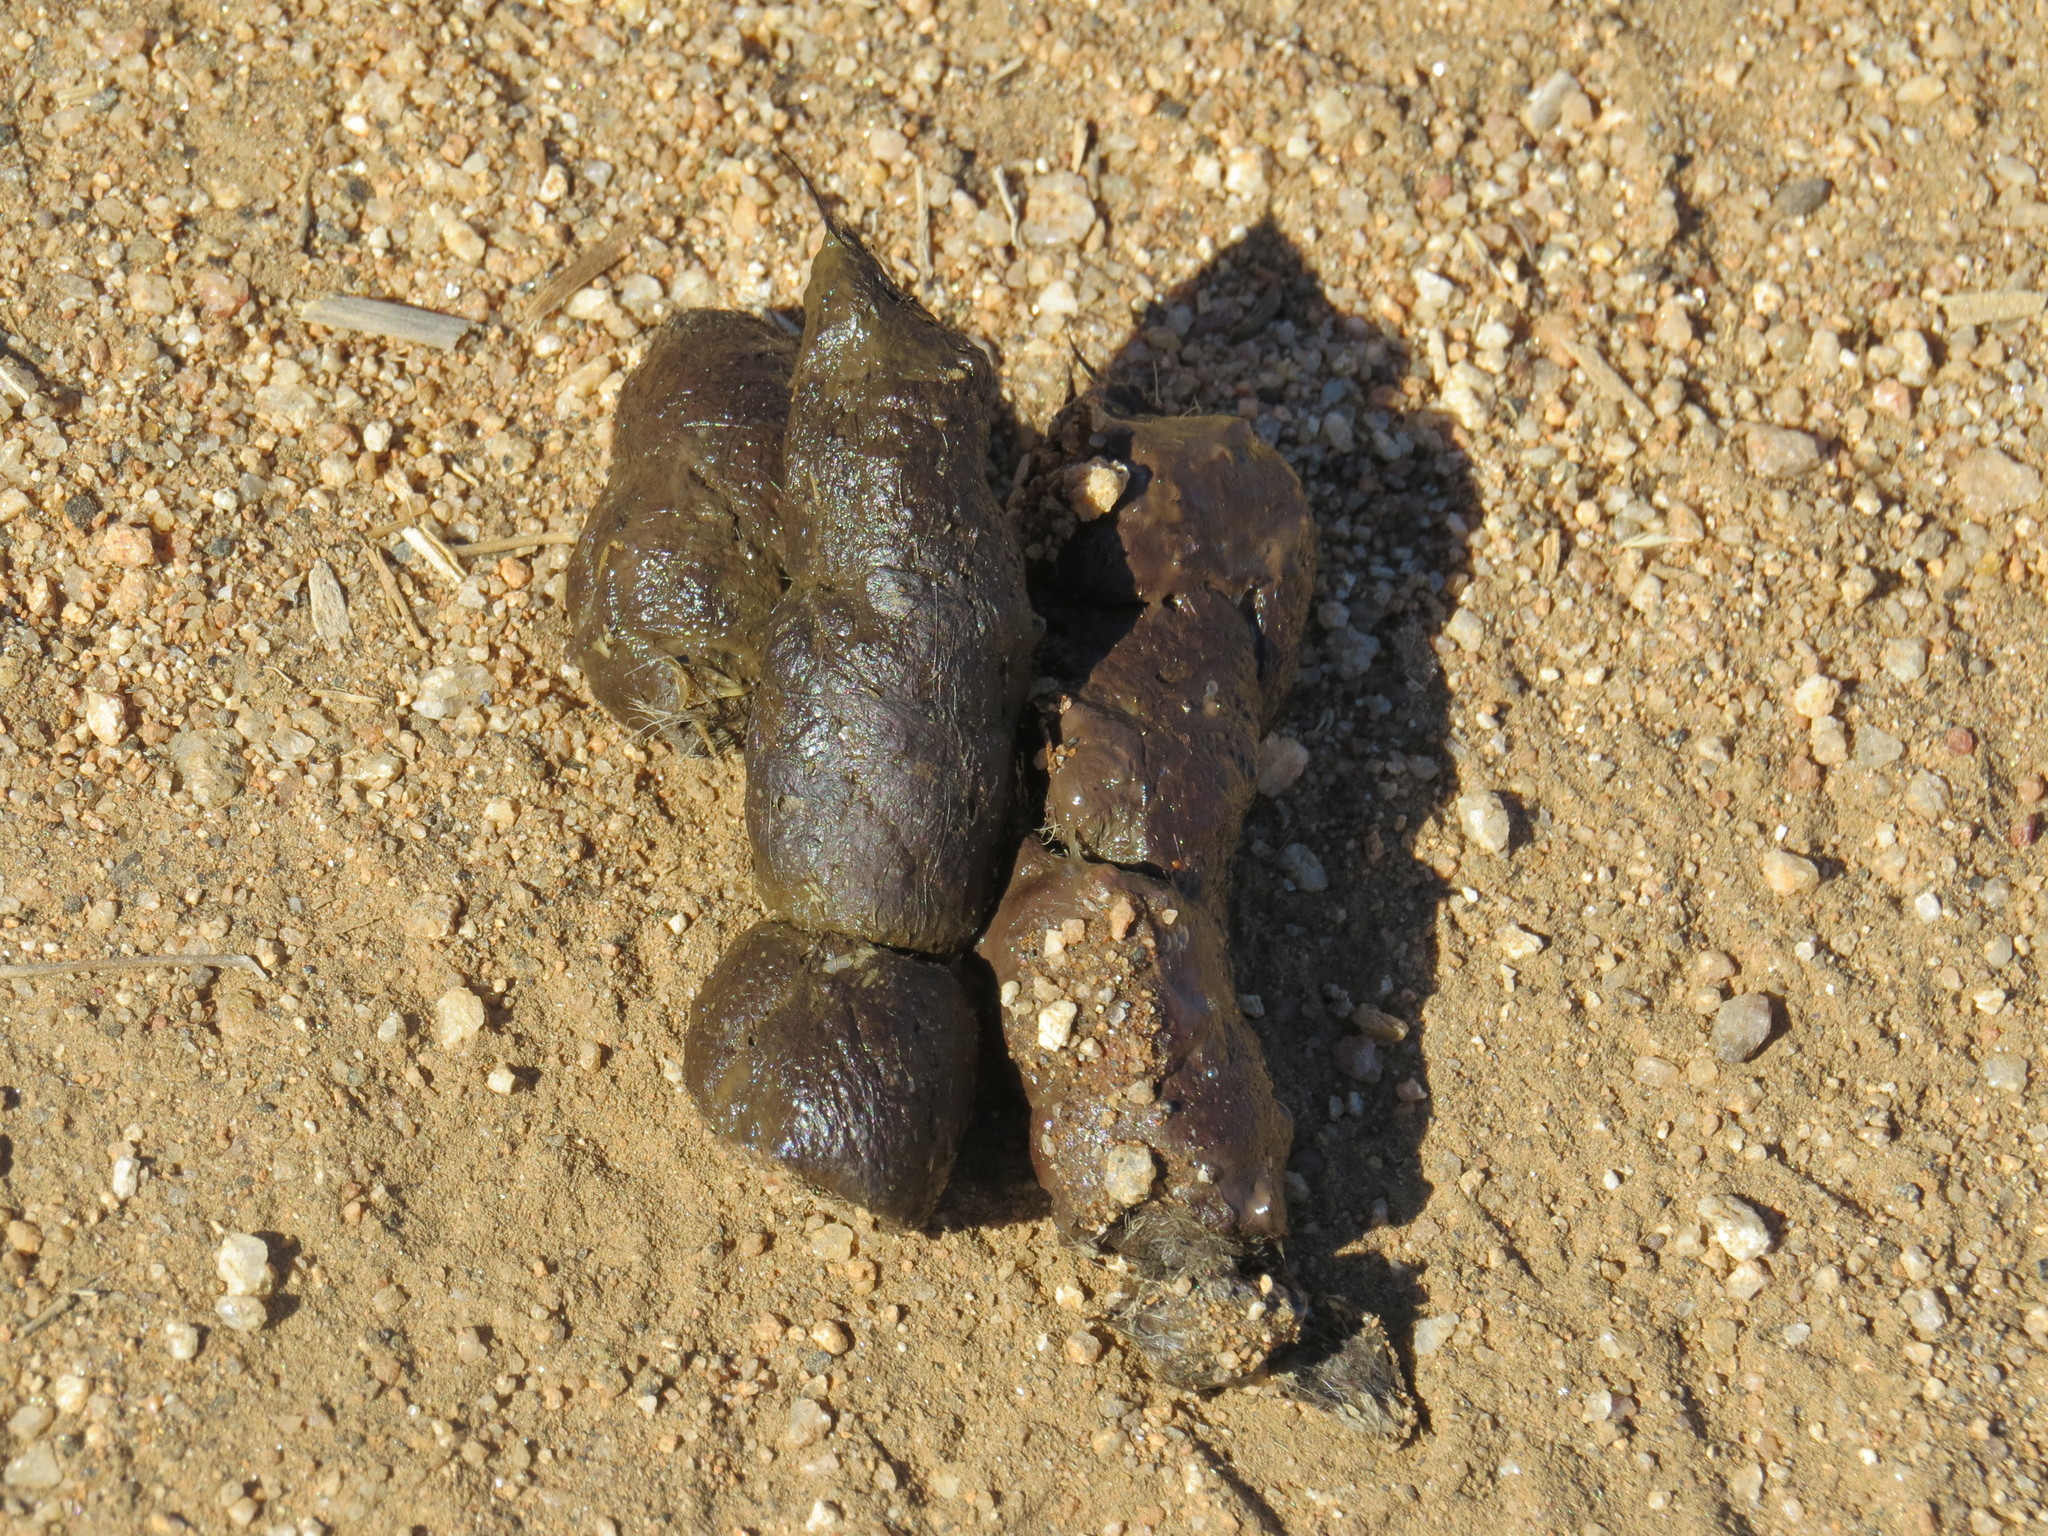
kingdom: Animalia
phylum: Chordata
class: Mammalia
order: Carnivora
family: Canidae
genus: Canis
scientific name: Canis latrans
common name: Coyote
